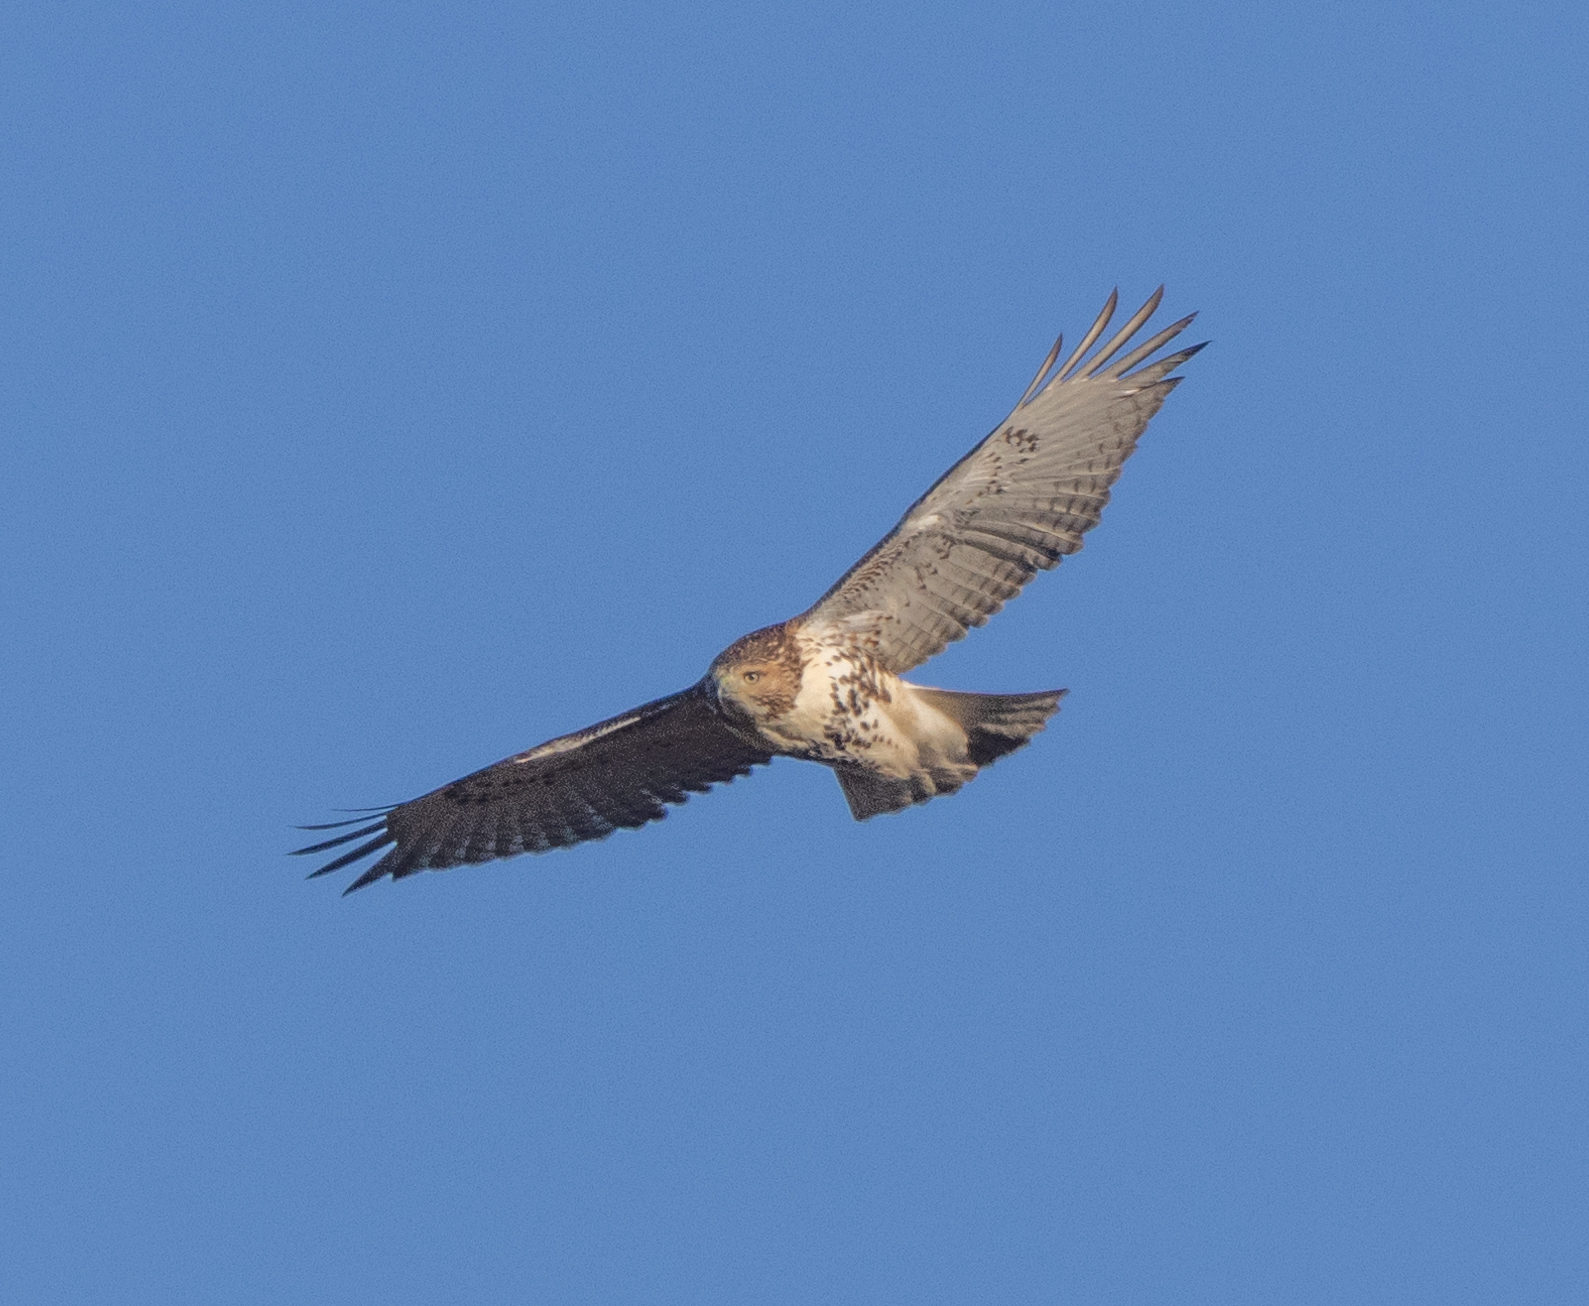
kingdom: Animalia
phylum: Chordata
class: Aves
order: Accipitriformes
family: Accipitridae
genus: Buteo
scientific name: Buteo jamaicensis
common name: Red-tailed hawk
